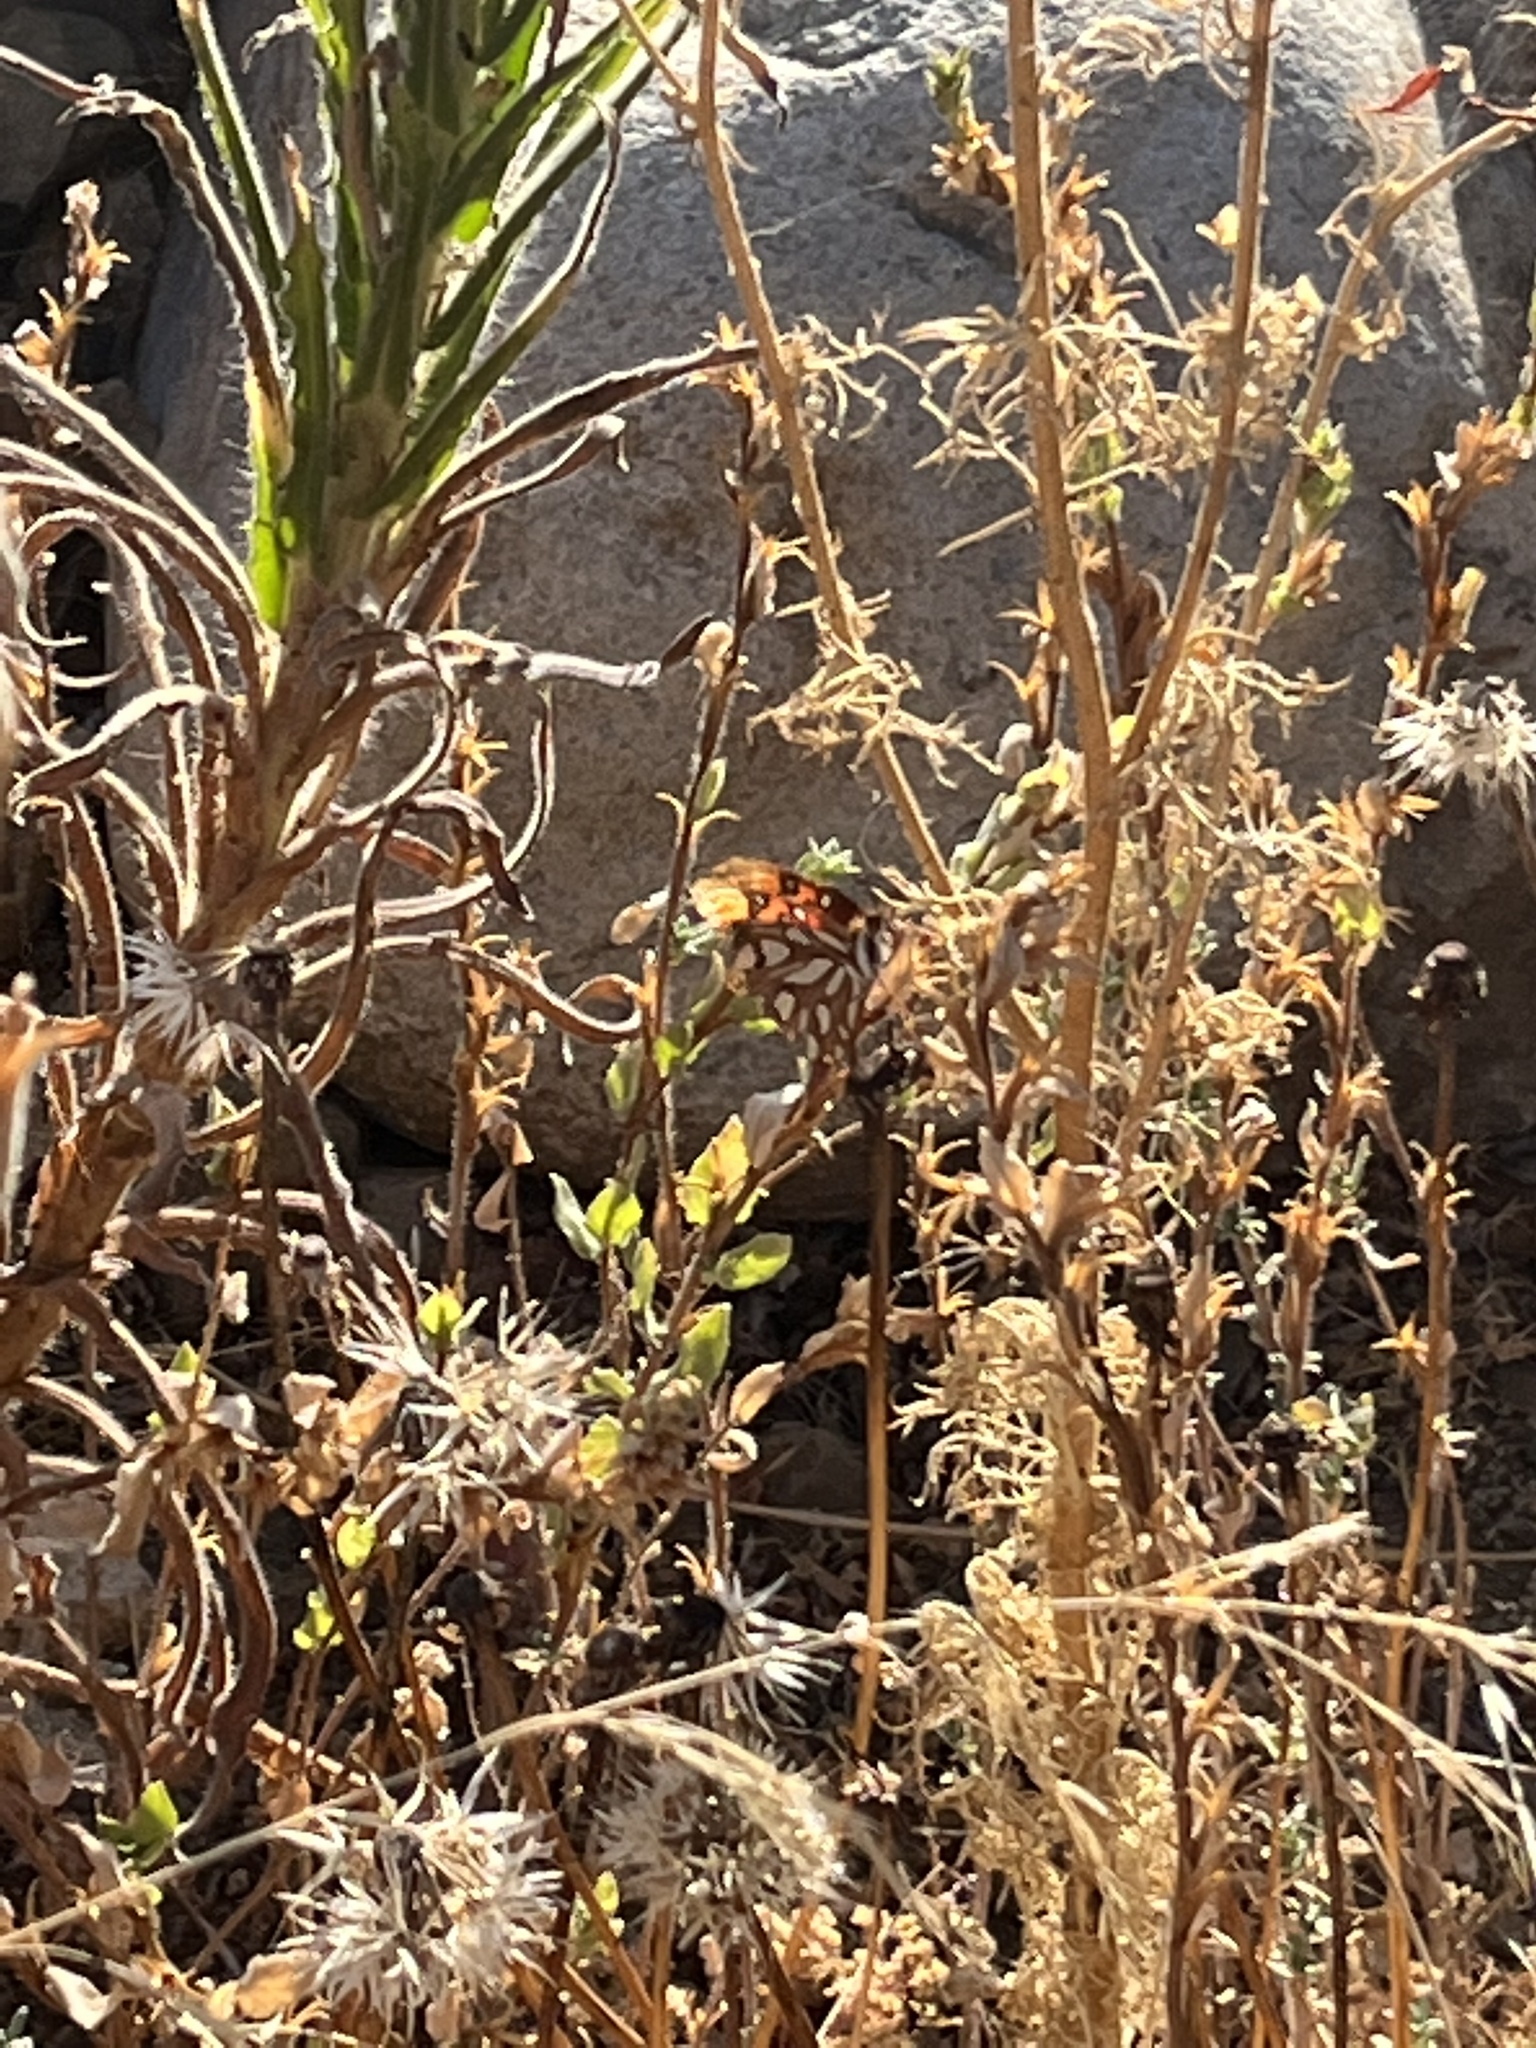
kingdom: Animalia
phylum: Arthropoda
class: Insecta
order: Lepidoptera
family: Nymphalidae
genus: Dione
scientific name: Dione vanillae
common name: Gulf fritillary
